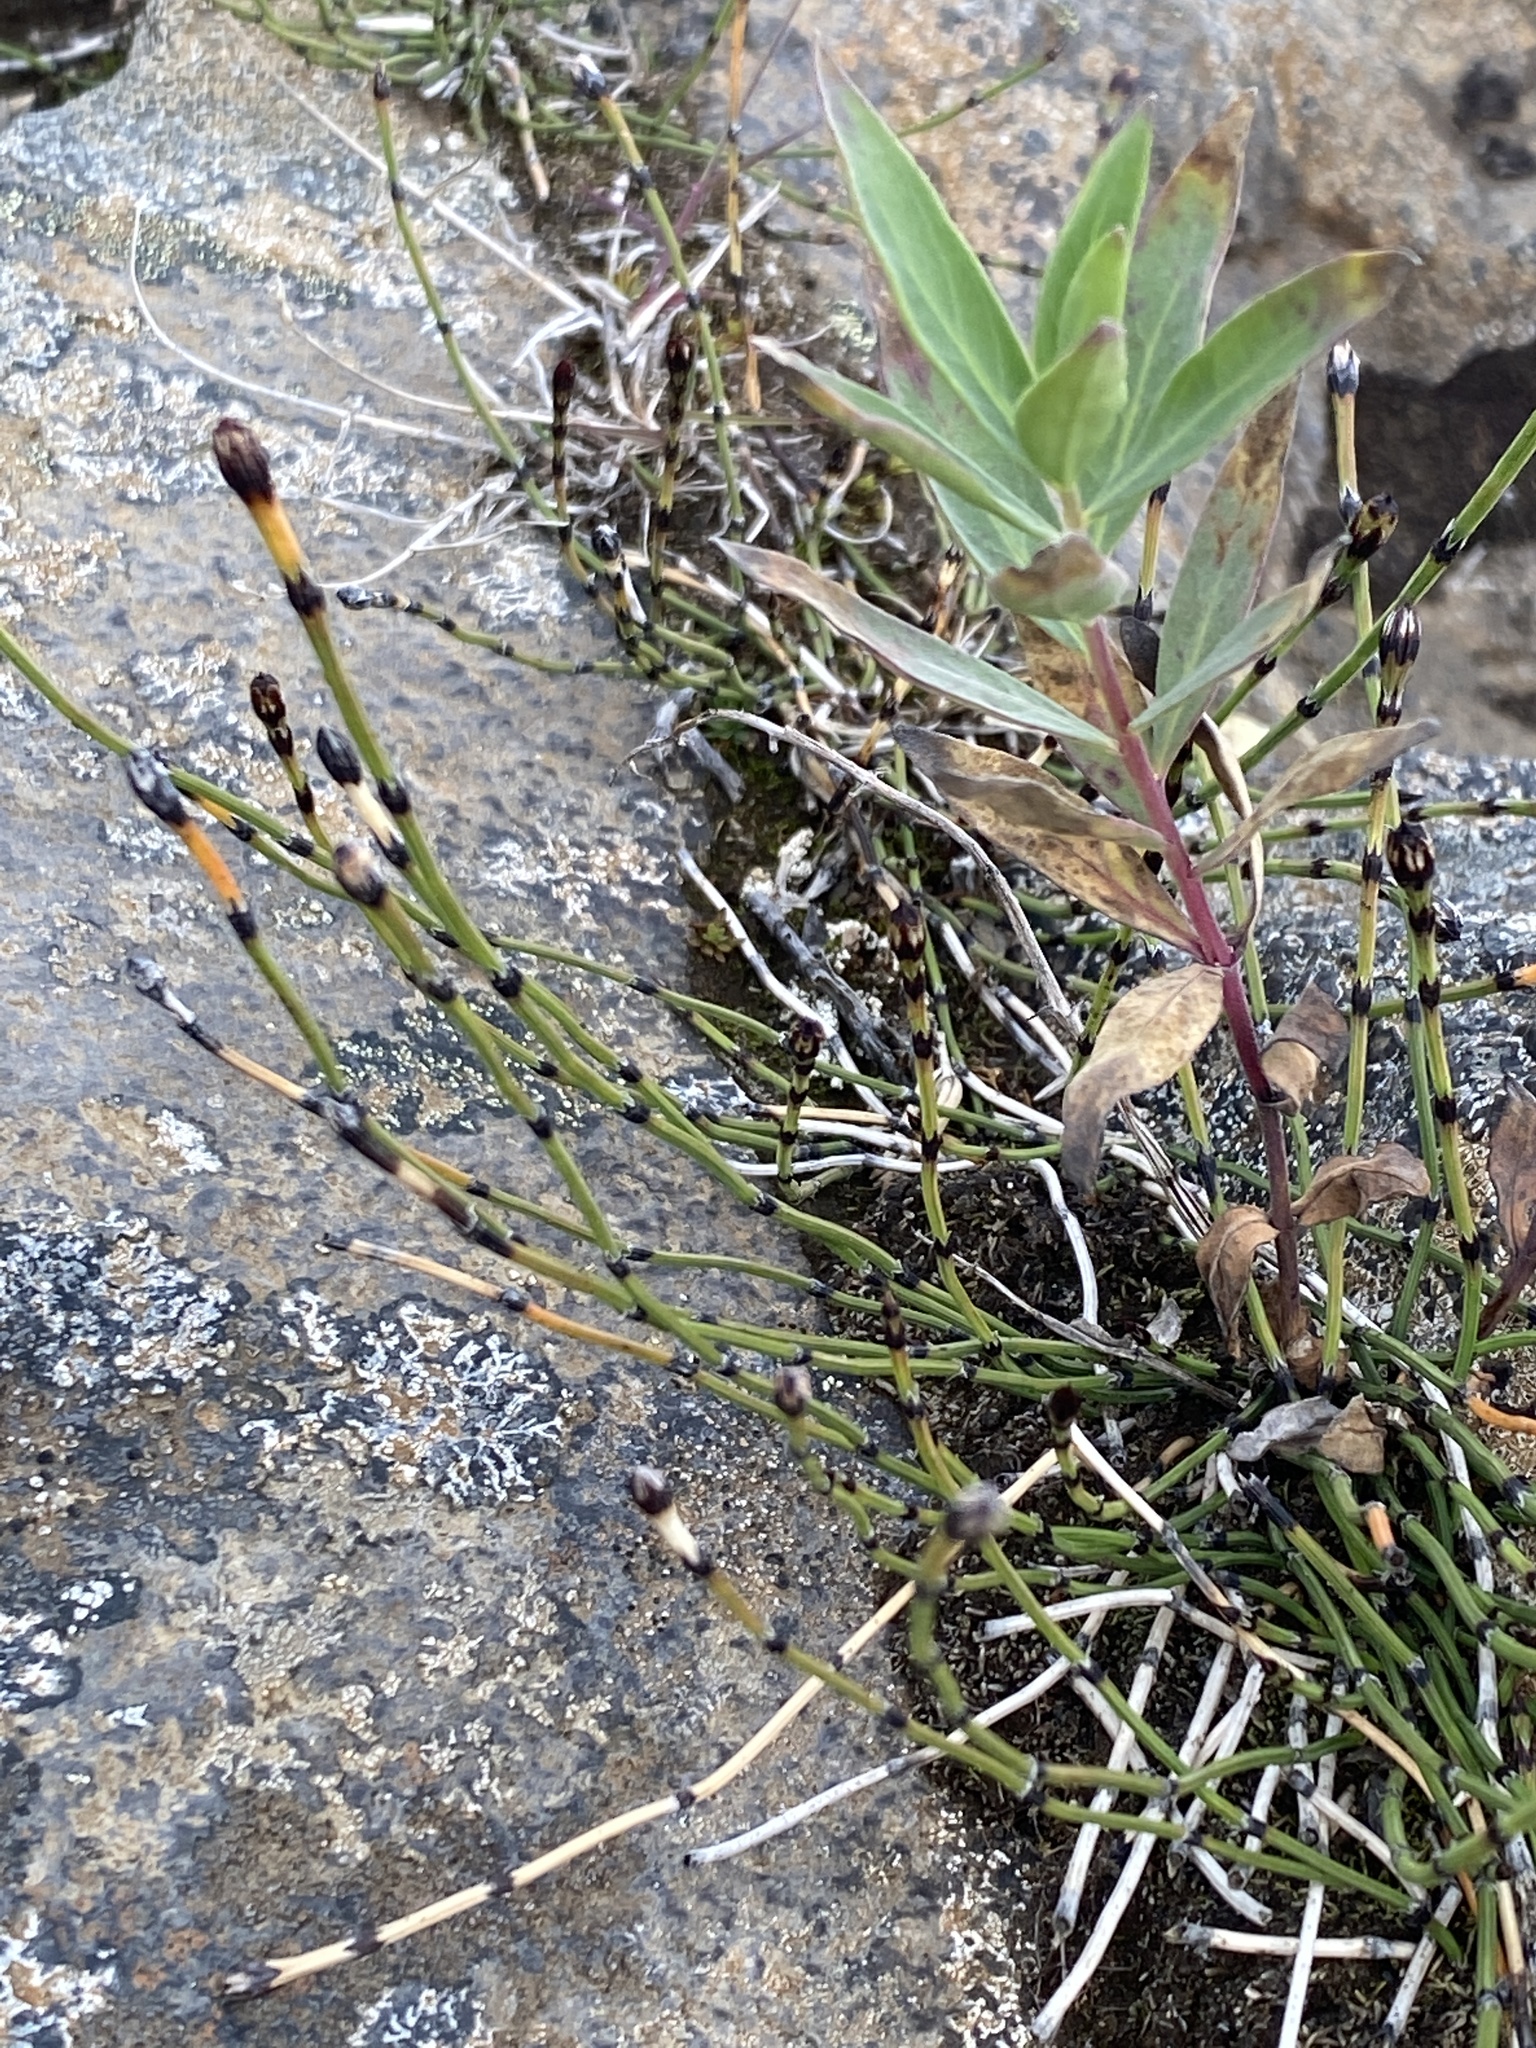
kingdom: Plantae
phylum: Tracheophyta
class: Polypodiopsida
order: Equisetales
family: Equisetaceae
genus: Equisetum
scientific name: Equisetum variegatum
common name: Variegated horsetail
